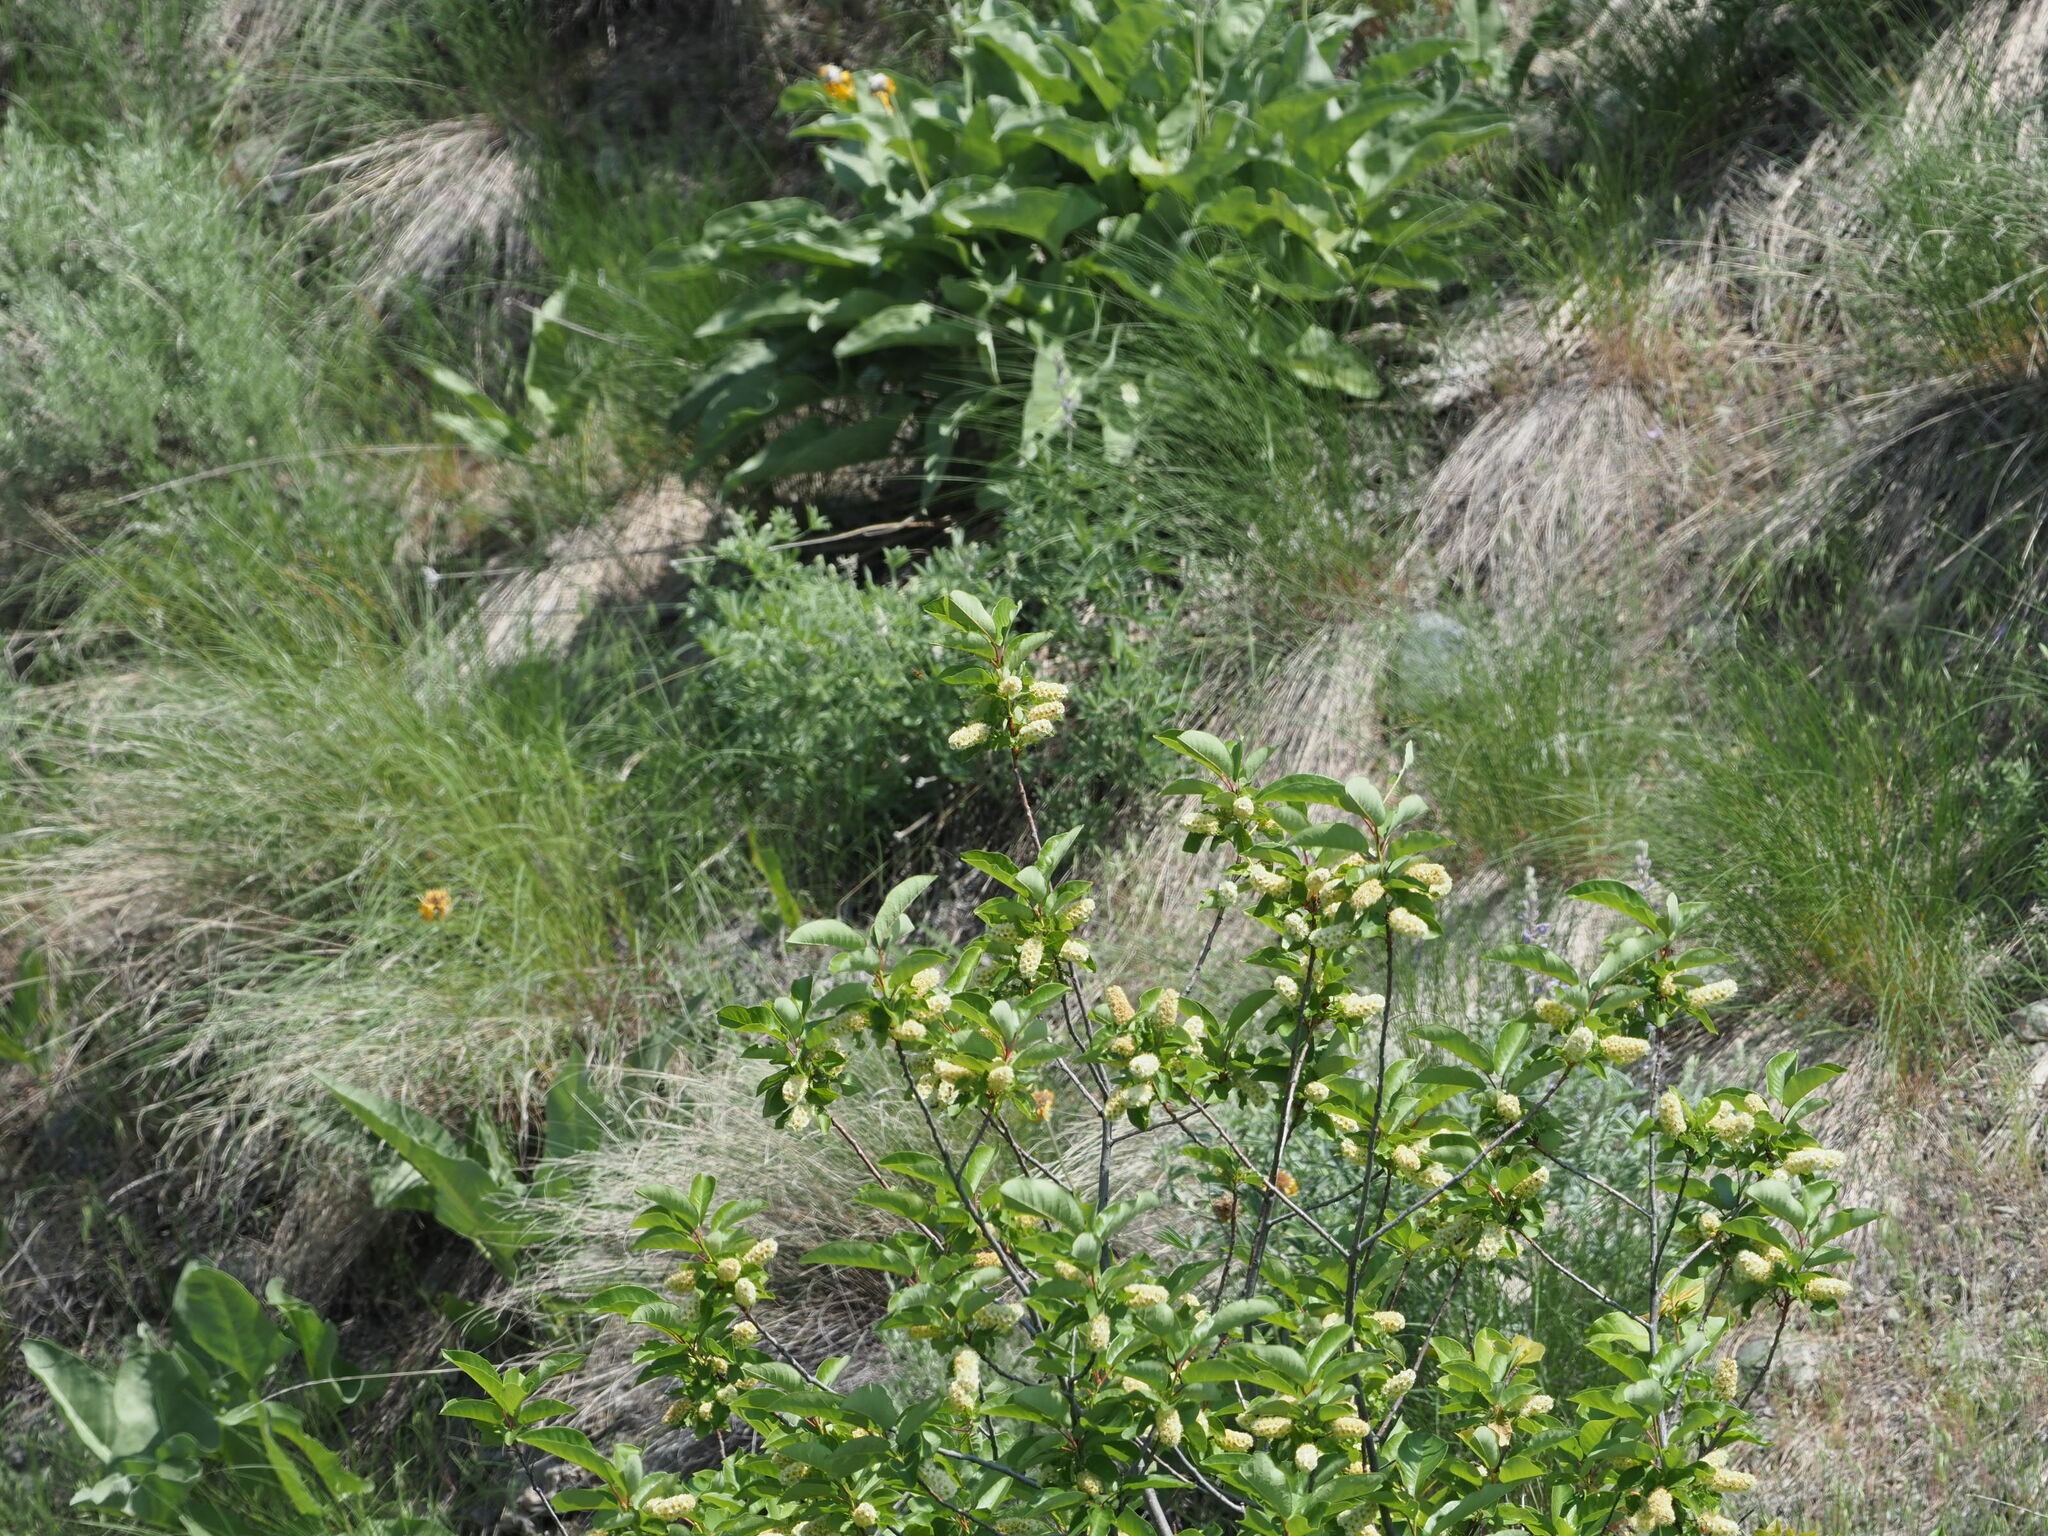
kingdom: Plantae
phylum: Tracheophyta
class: Magnoliopsida
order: Rosales
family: Rosaceae
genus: Prunus
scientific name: Prunus virginiana
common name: Chokecherry
